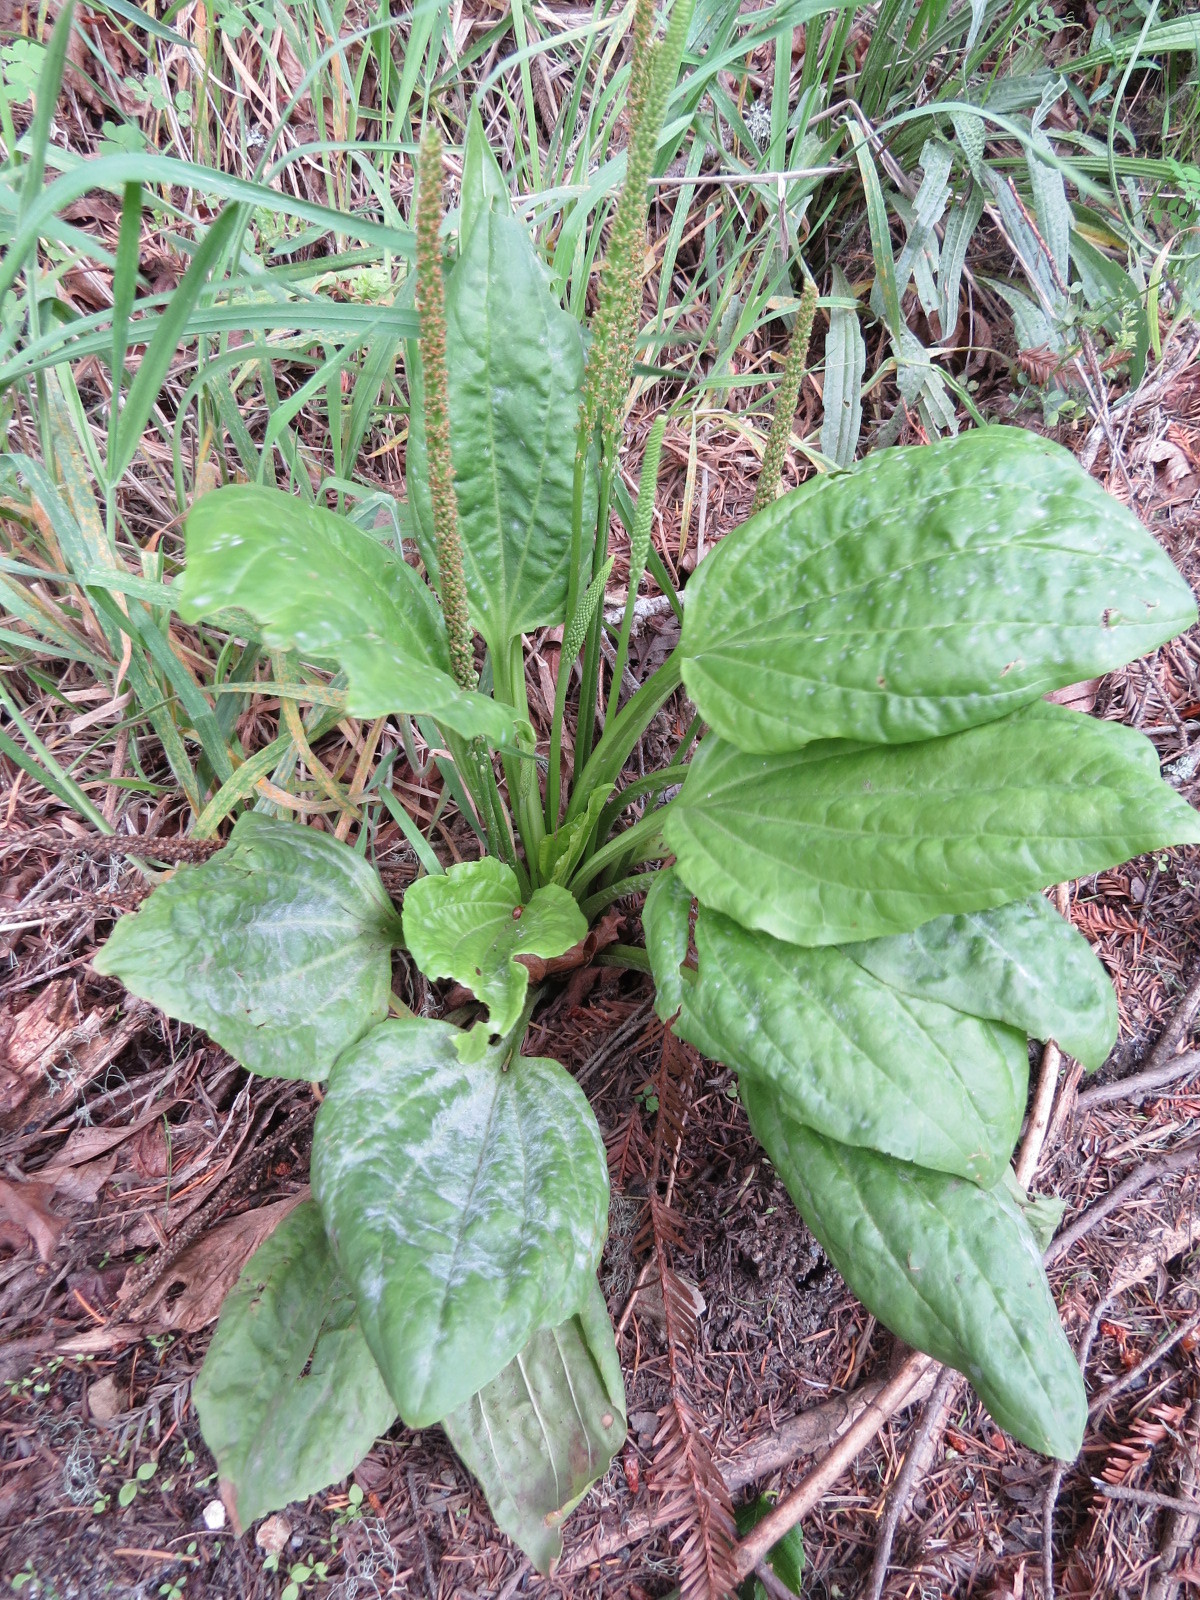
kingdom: Plantae
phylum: Tracheophyta
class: Magnoliopsida
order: Lamiales
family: Plantaginaceae
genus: Plantago
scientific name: Plantago major
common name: Common plantain
